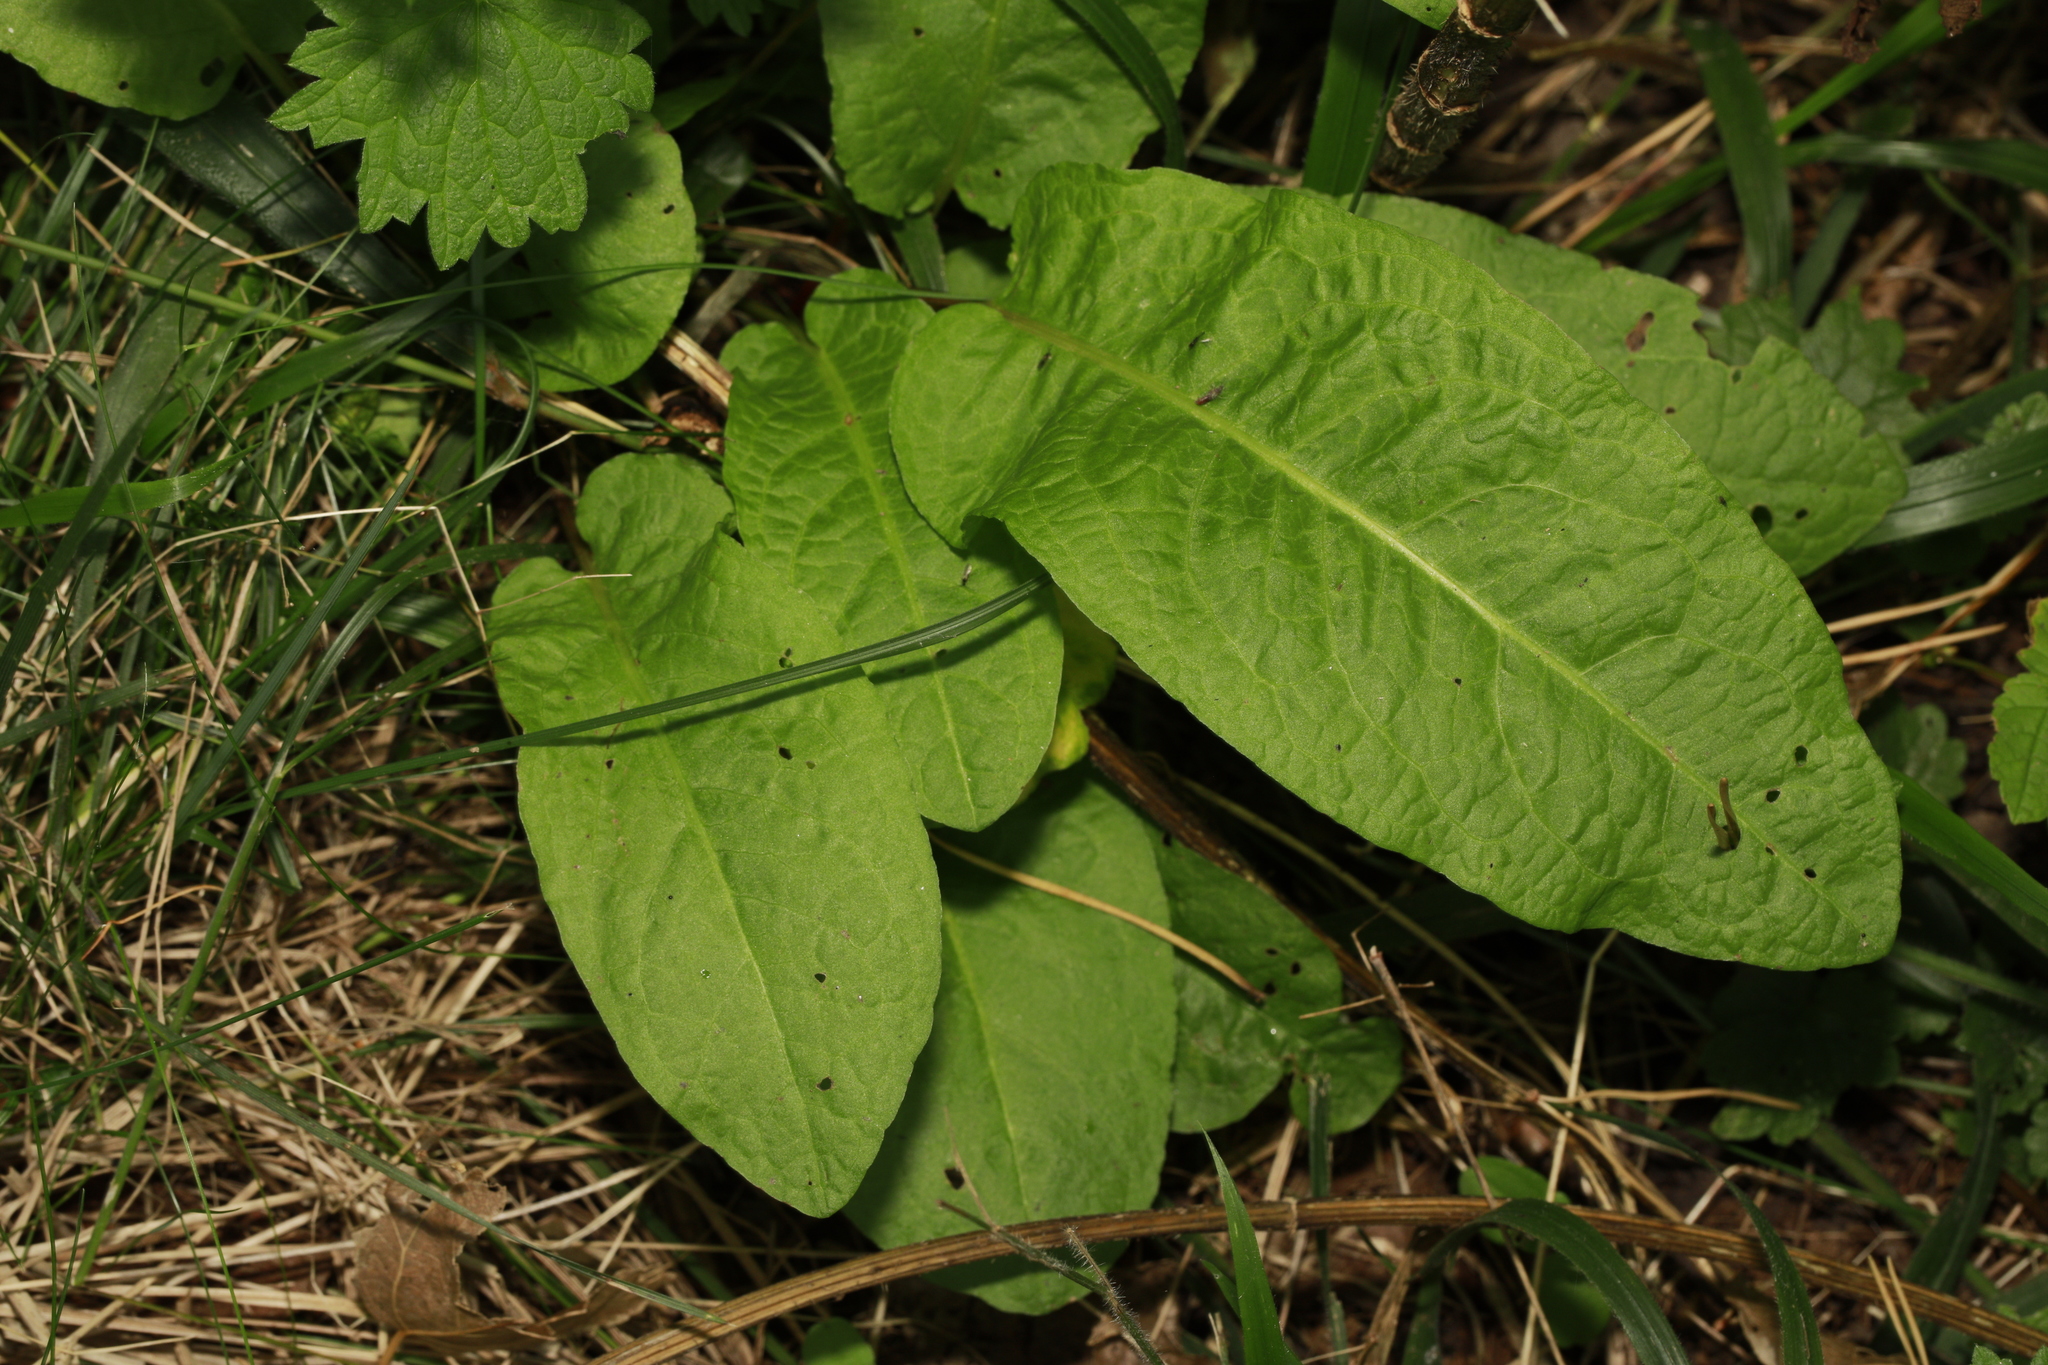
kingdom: Plantae
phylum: Tracheophyta
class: Magnoliopsida
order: Caryophyllales
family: Polygonaceae
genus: Rumex
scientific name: Rumex obtusifolius
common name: Bitter dock
